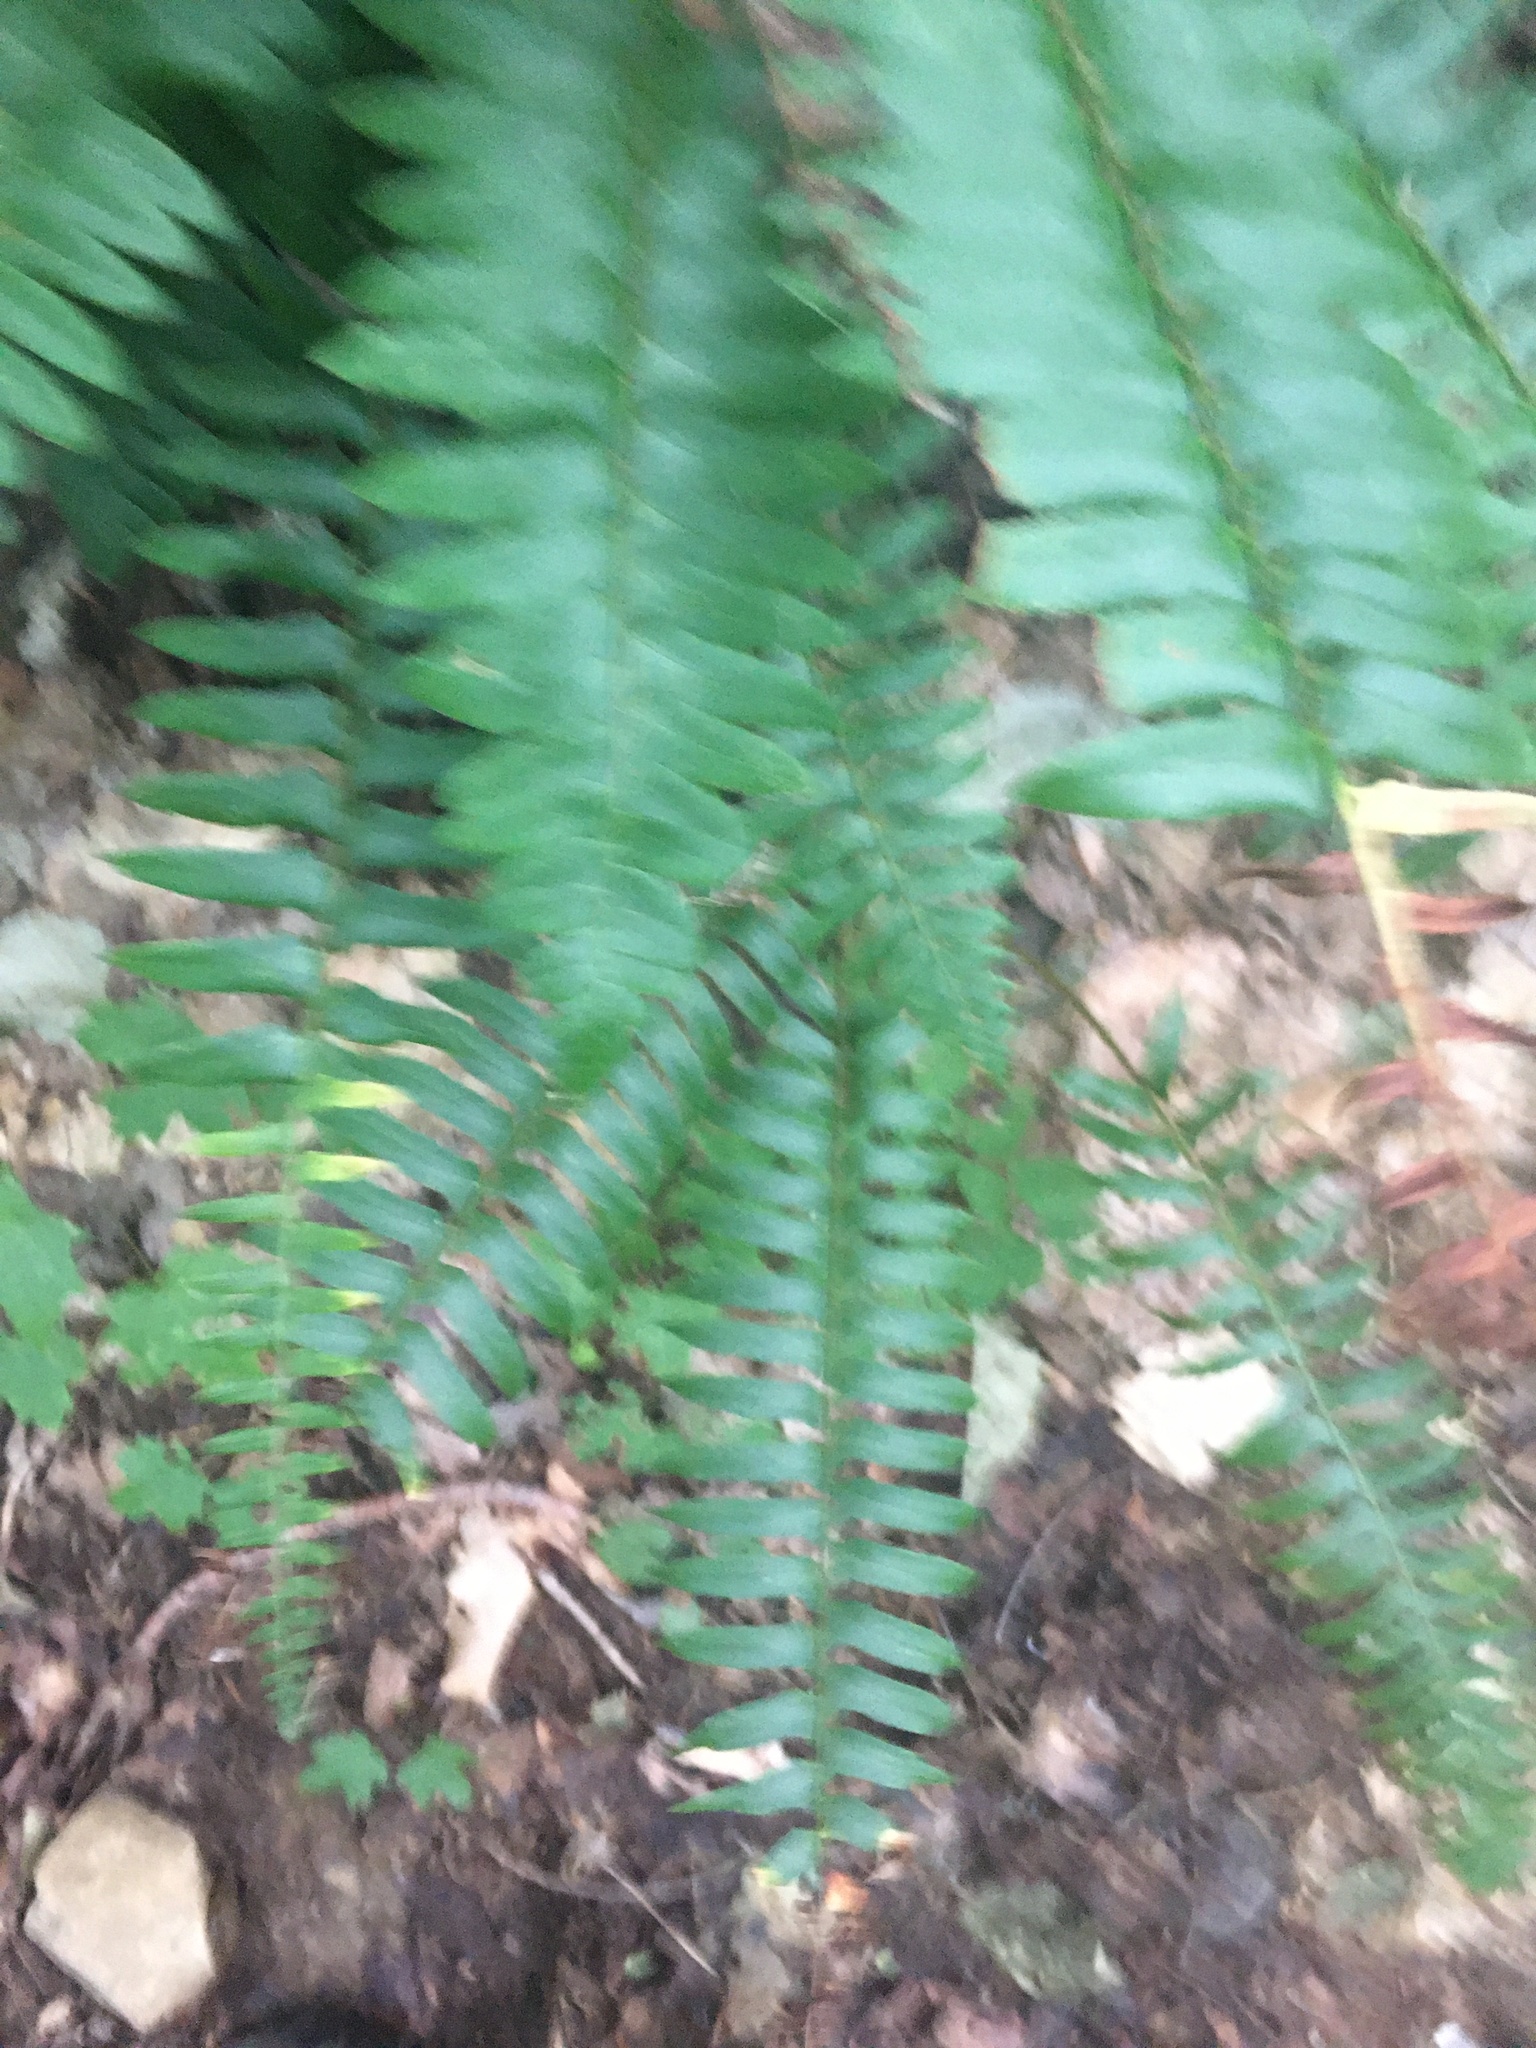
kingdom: Plantae
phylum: Tracheophyta
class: Polypodiopsida
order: Polypodiales
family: Dryopteridaceae
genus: Polystichum
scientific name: Polystichum acrostichoides
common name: Christmas fern
